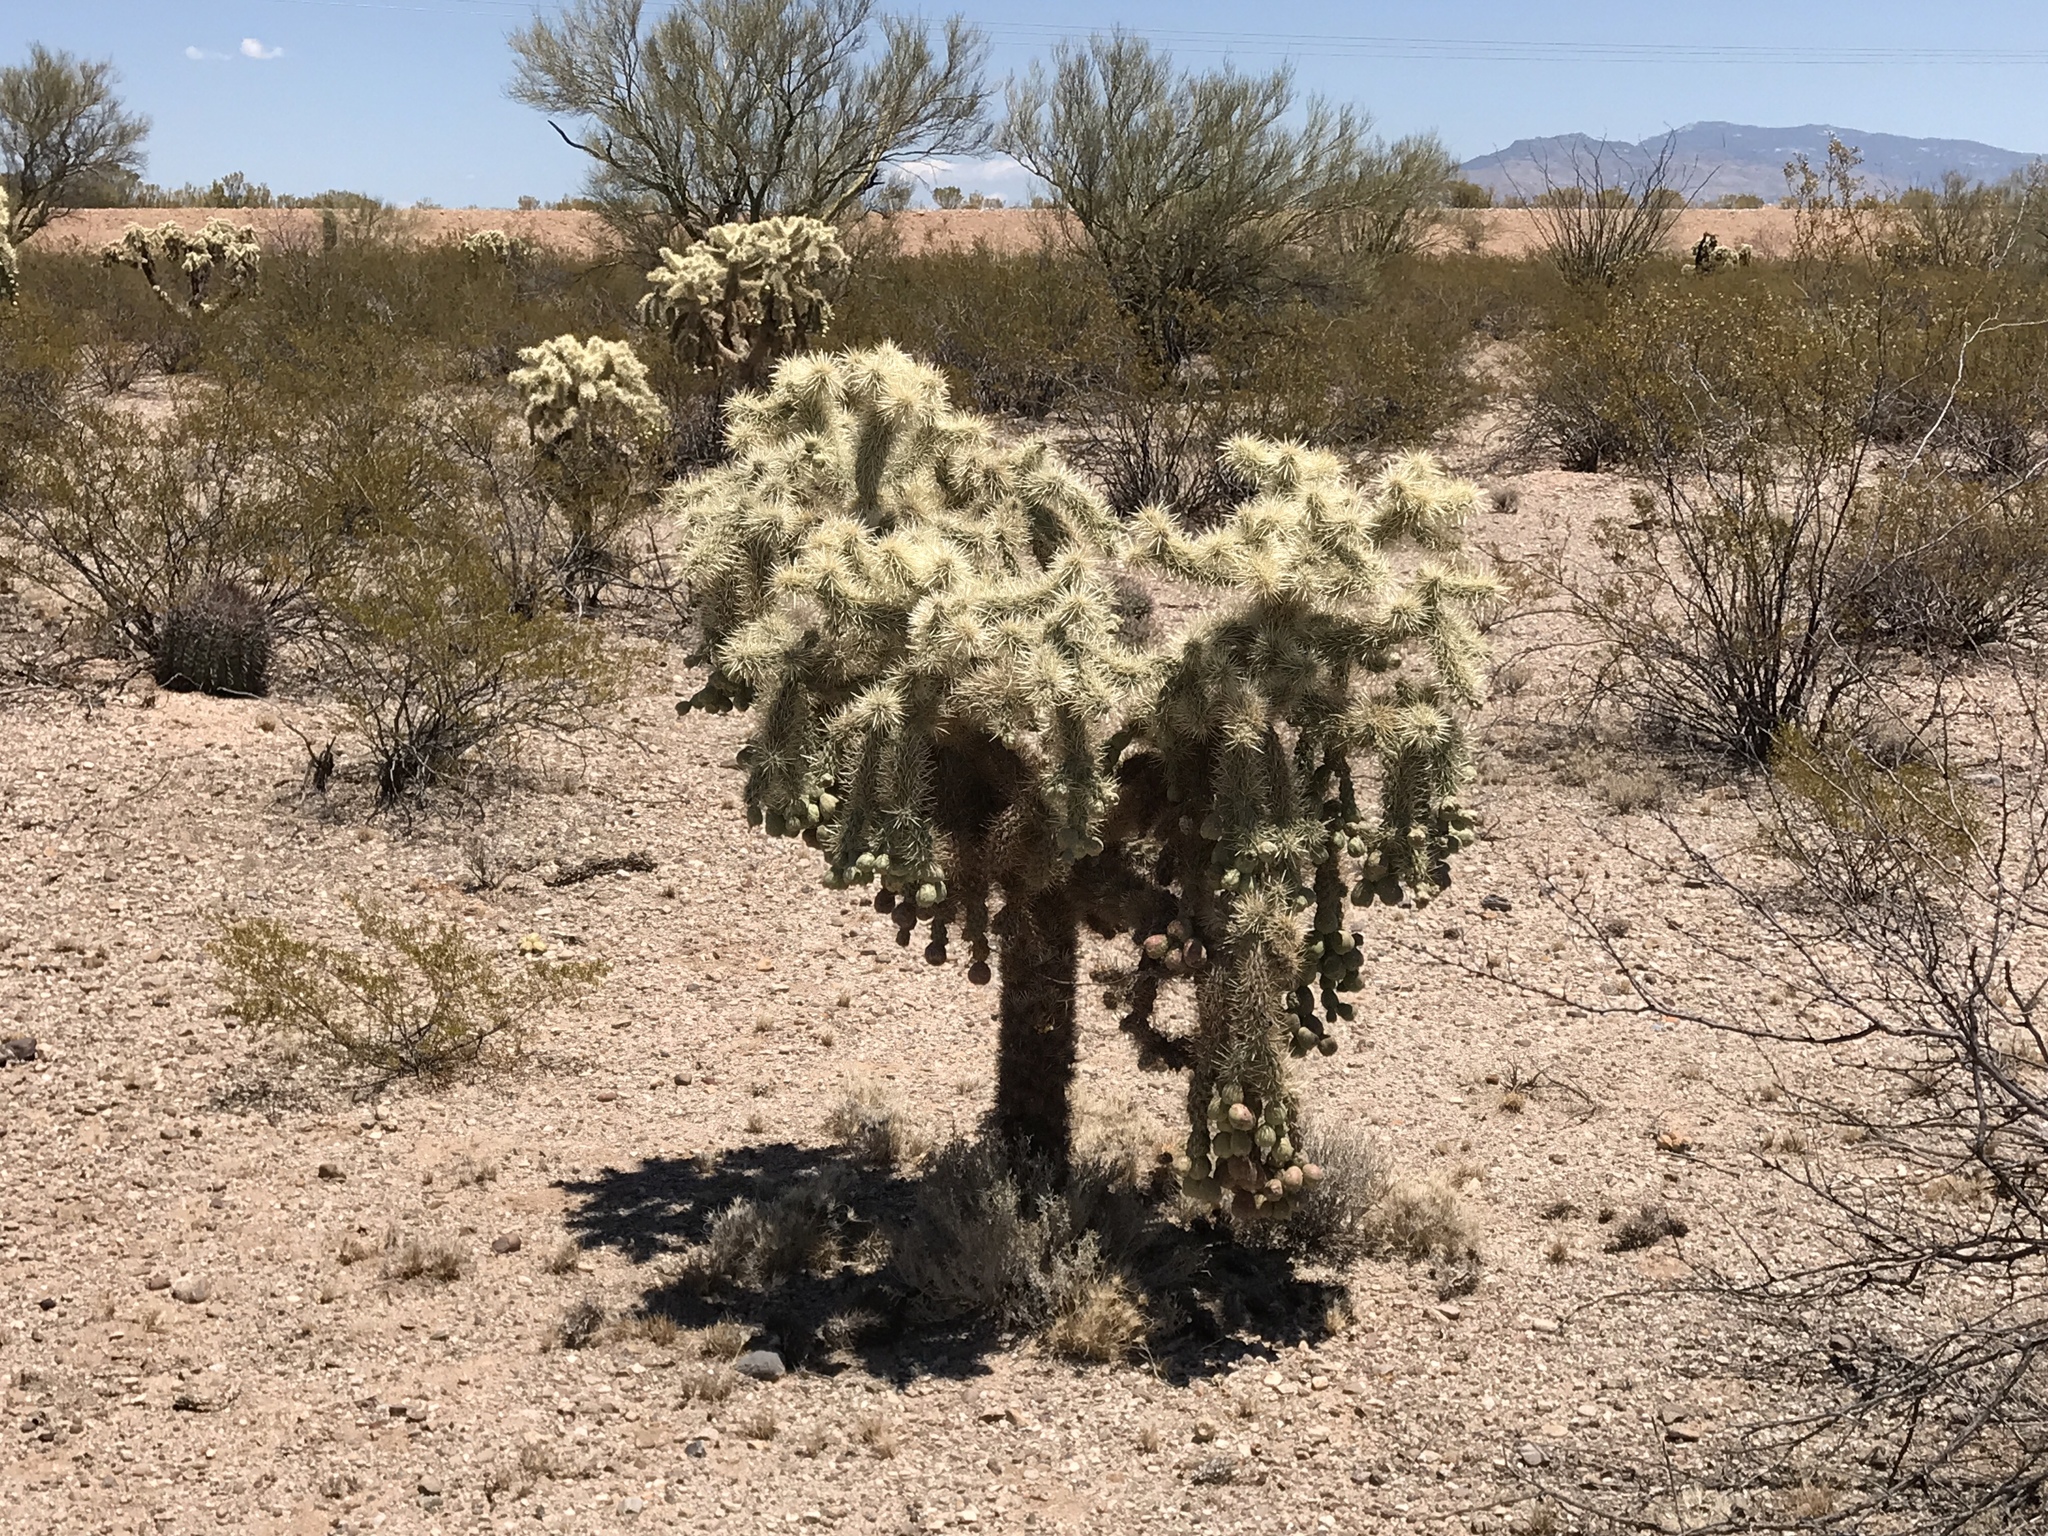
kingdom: Plantae
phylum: Tracheophyta
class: Magnoliopsida
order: Caryophyllales
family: Cactaceae
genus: Cylindropuntia
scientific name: Cylindropuntia fulgida
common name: Jumping cholla
